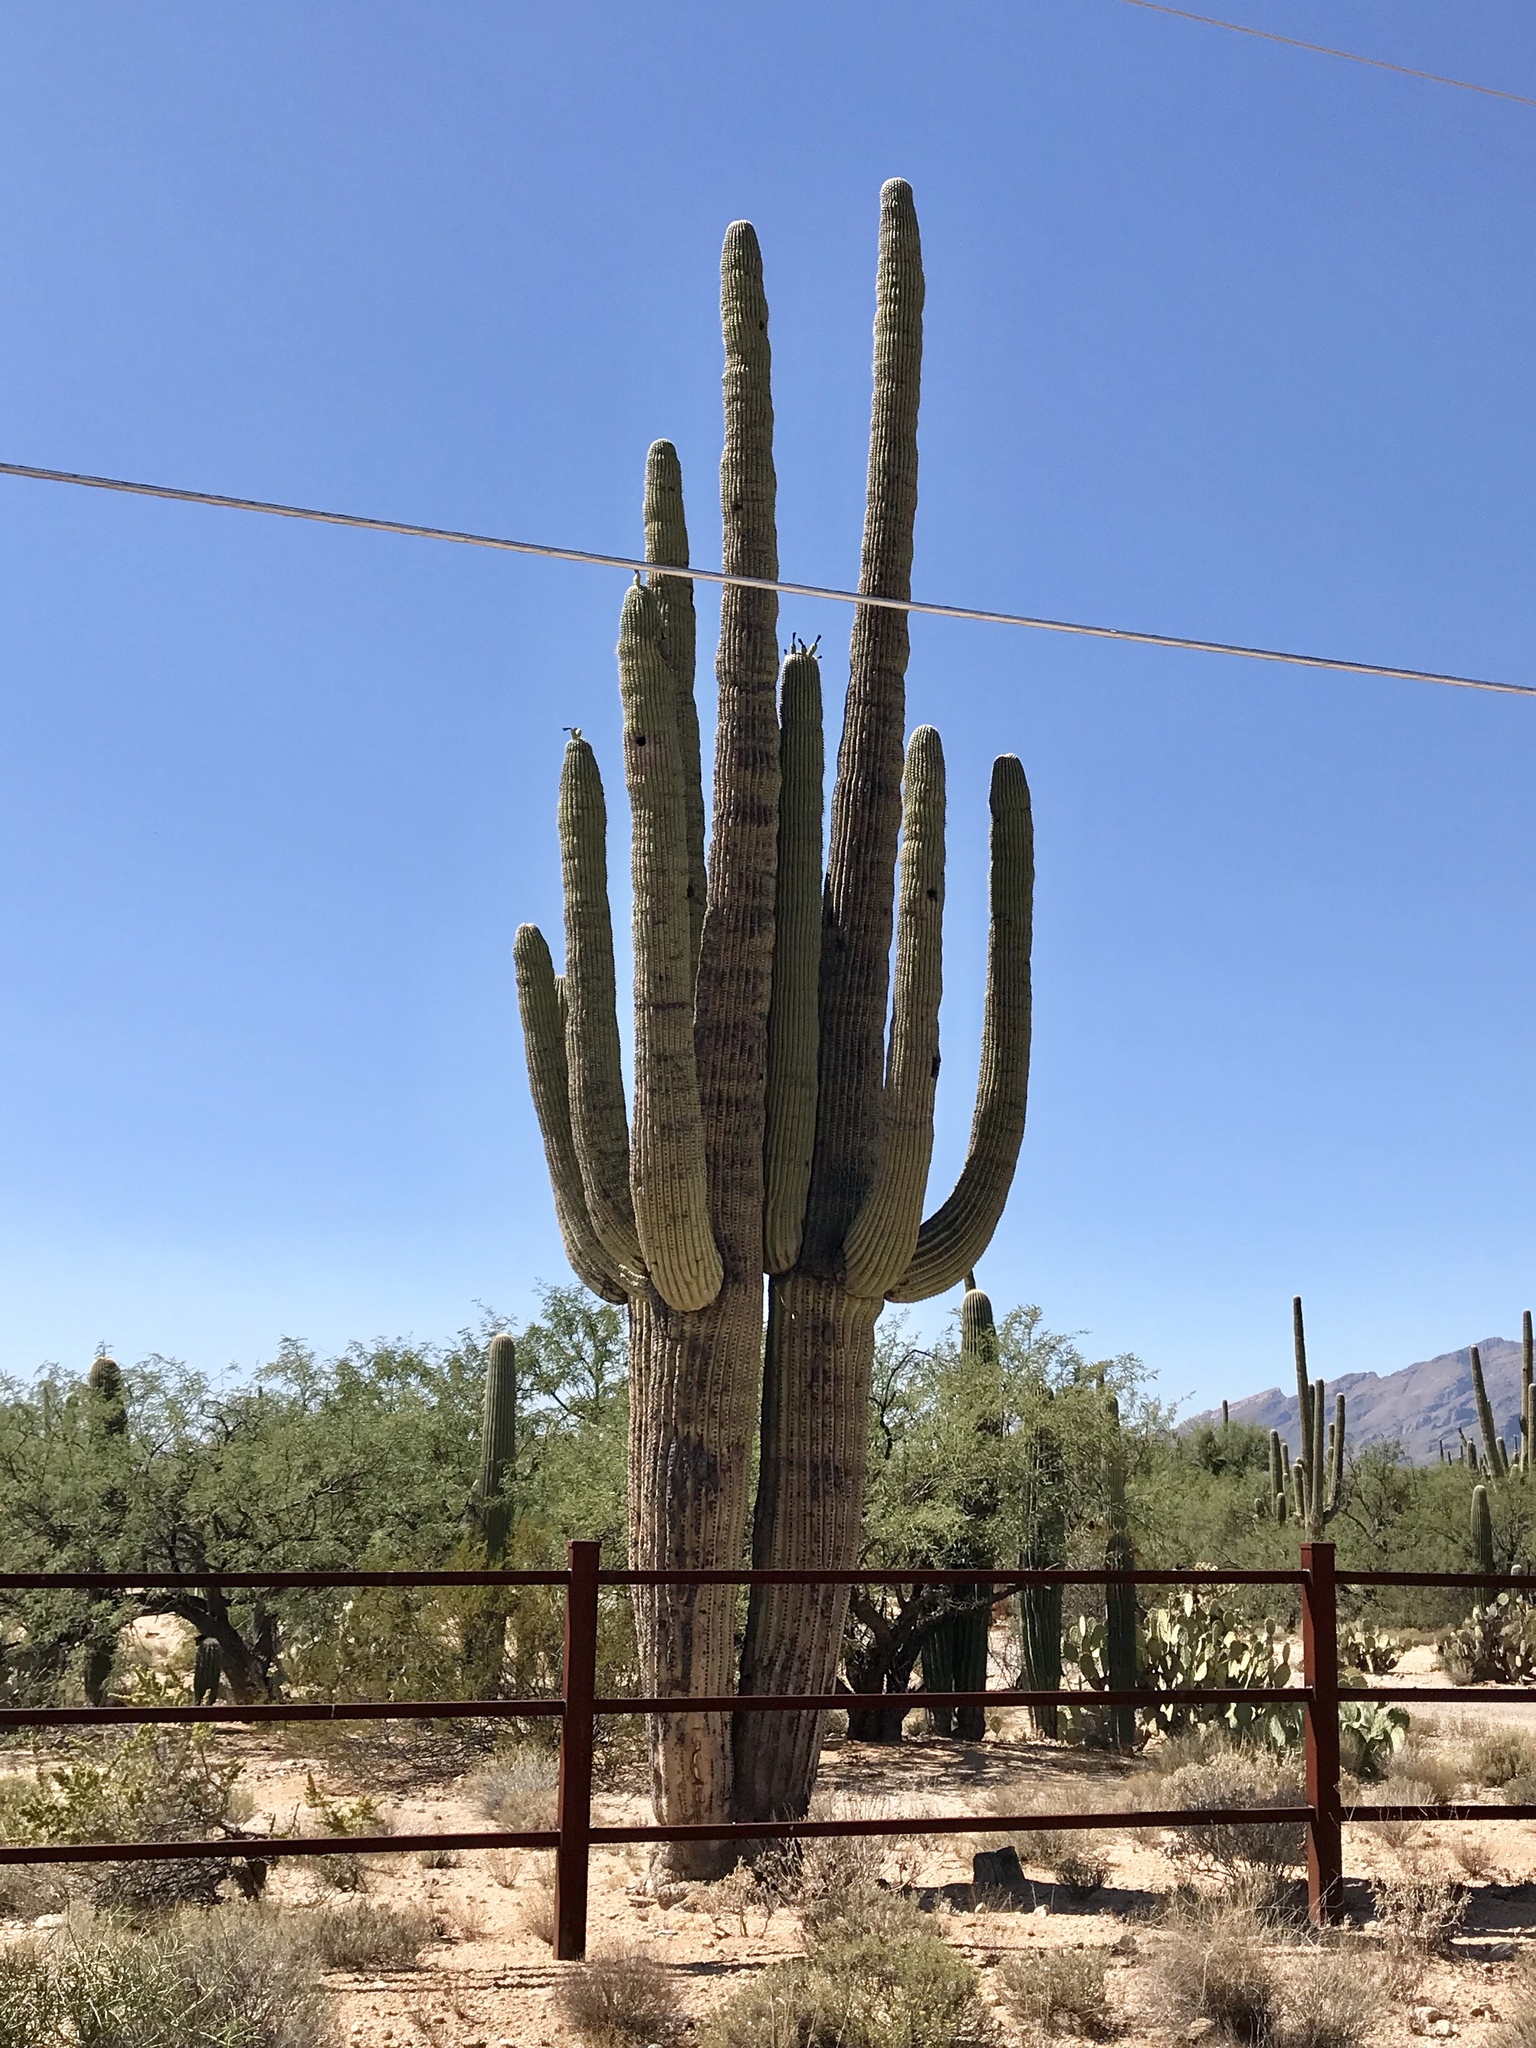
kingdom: Plantae
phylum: Tracheophyta
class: Magnoliopsida
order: Caryophyllales
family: Cactaceae
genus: Carnegiea
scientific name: Carnegiea gigantea
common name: Saguaro
